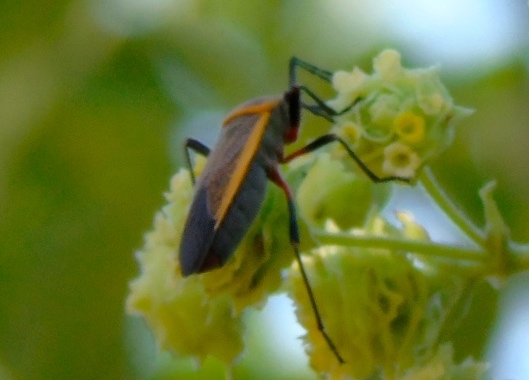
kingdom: Animalia
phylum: Arthropoda
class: Insecta
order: Hemiptera
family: Largidae
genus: Largus
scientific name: Largus
